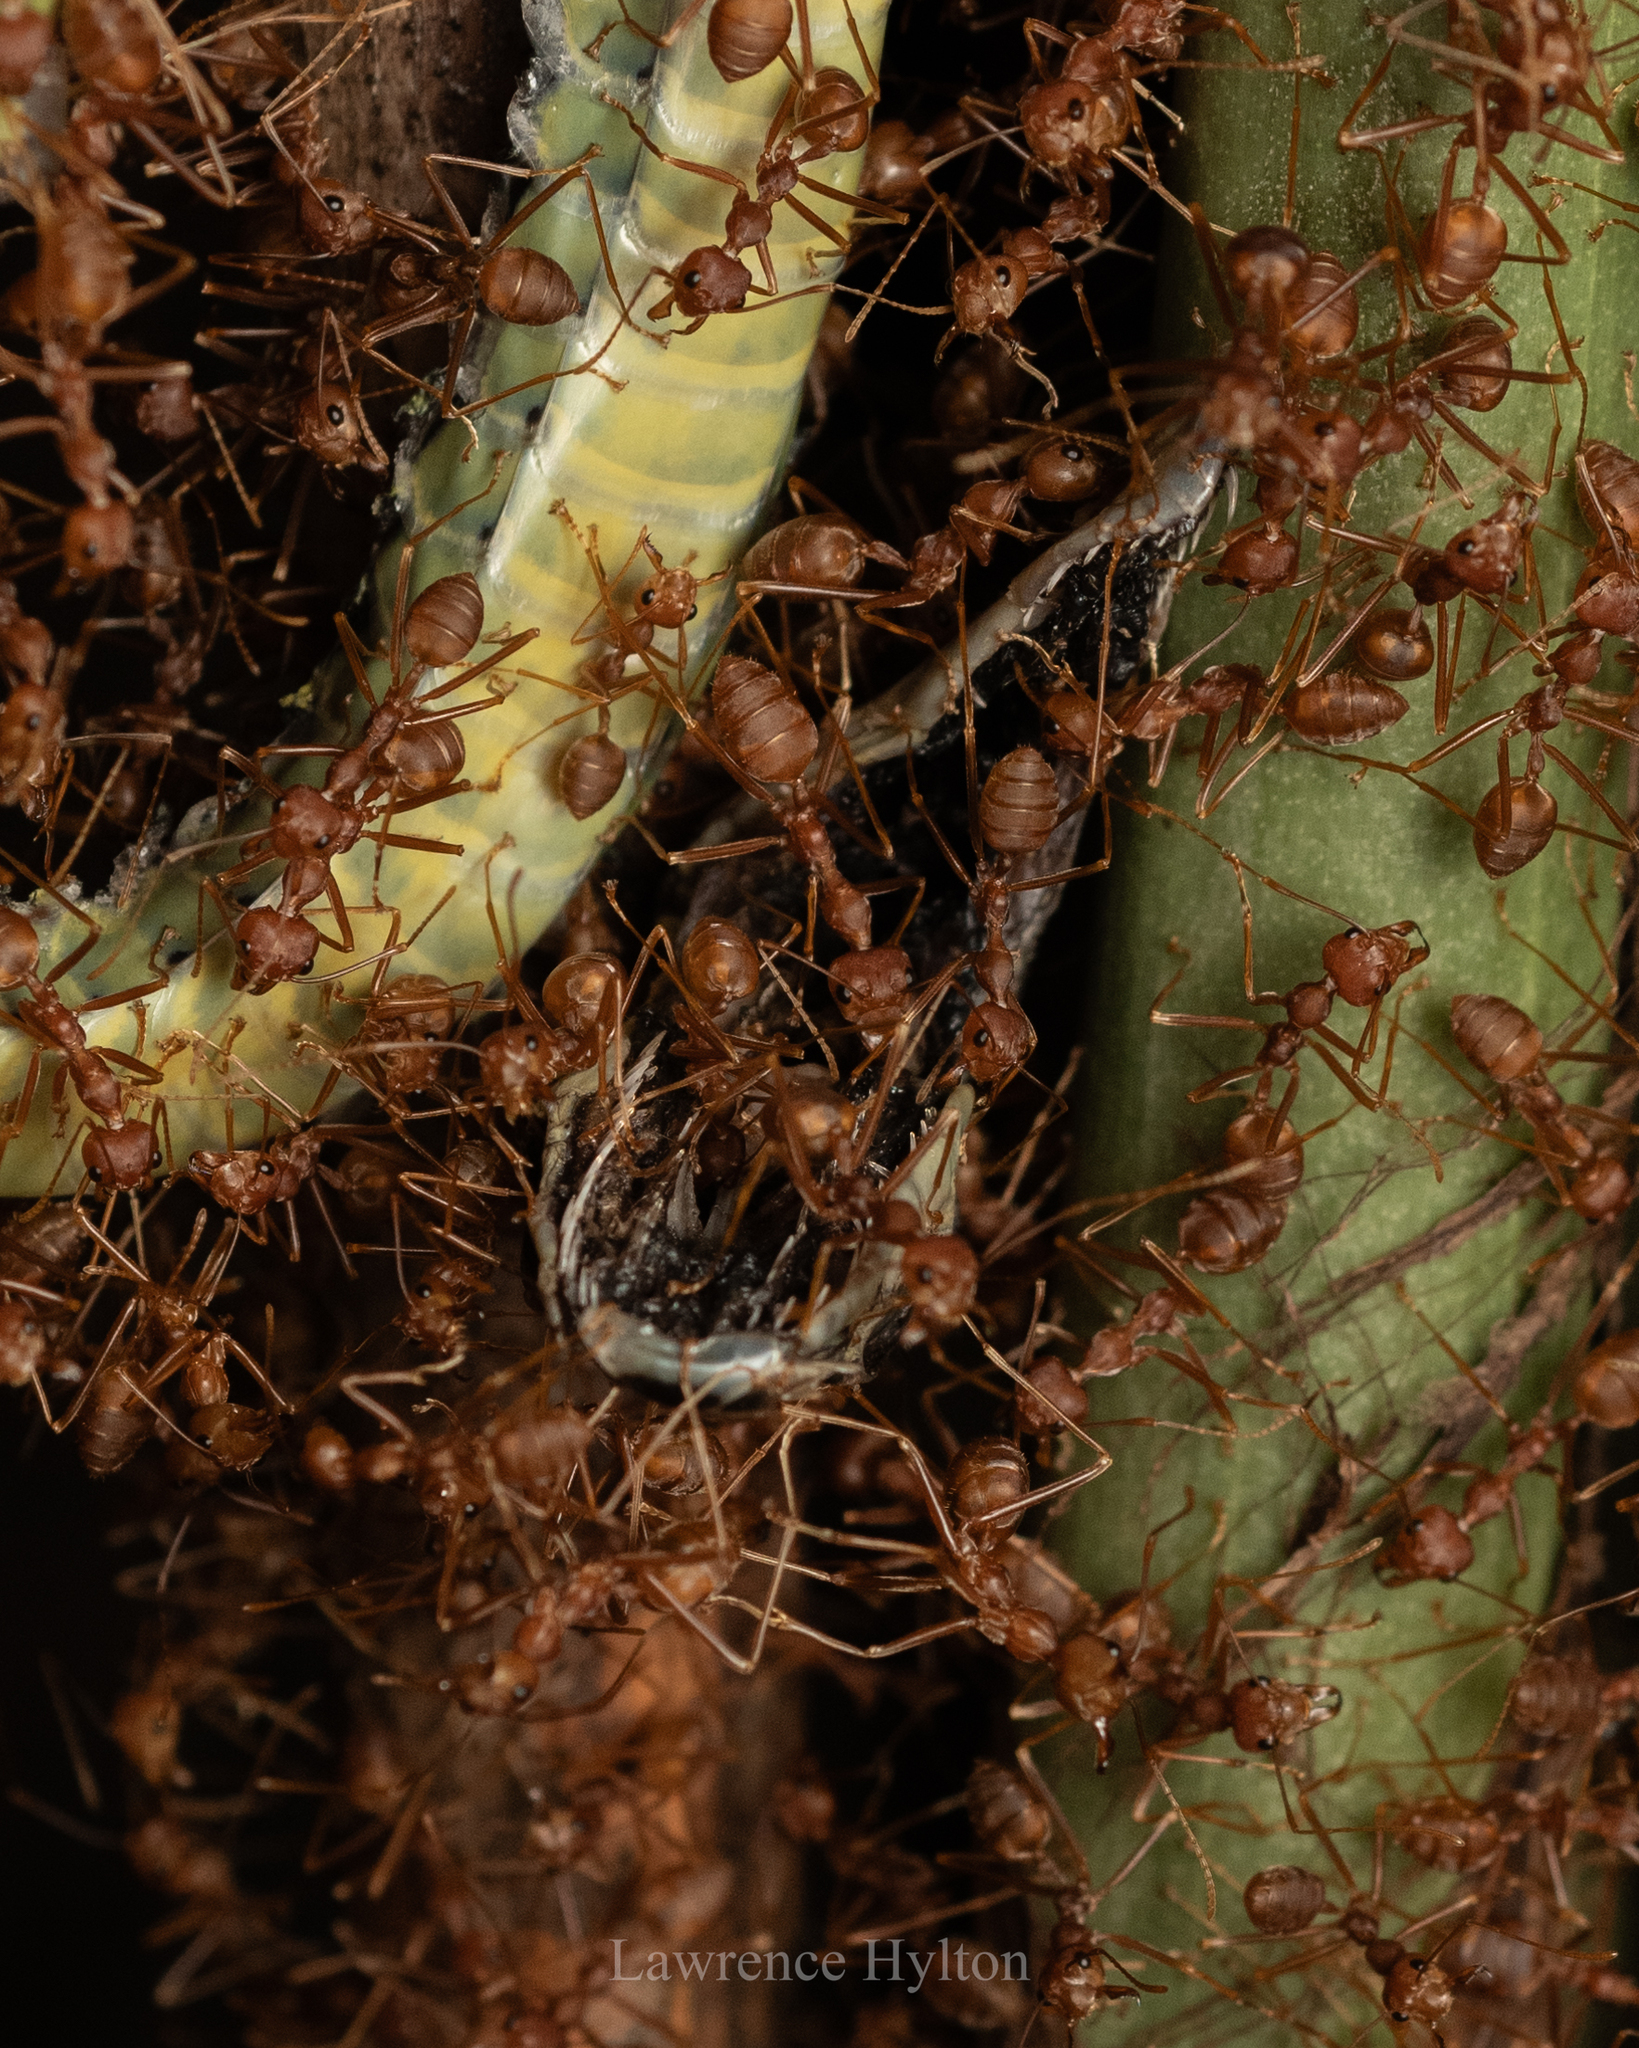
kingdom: Animalia
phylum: Chordata
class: Squamata
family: Colubridae
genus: Chrysopelea
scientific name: Chrysopelea ornata
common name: Golden flying snake
